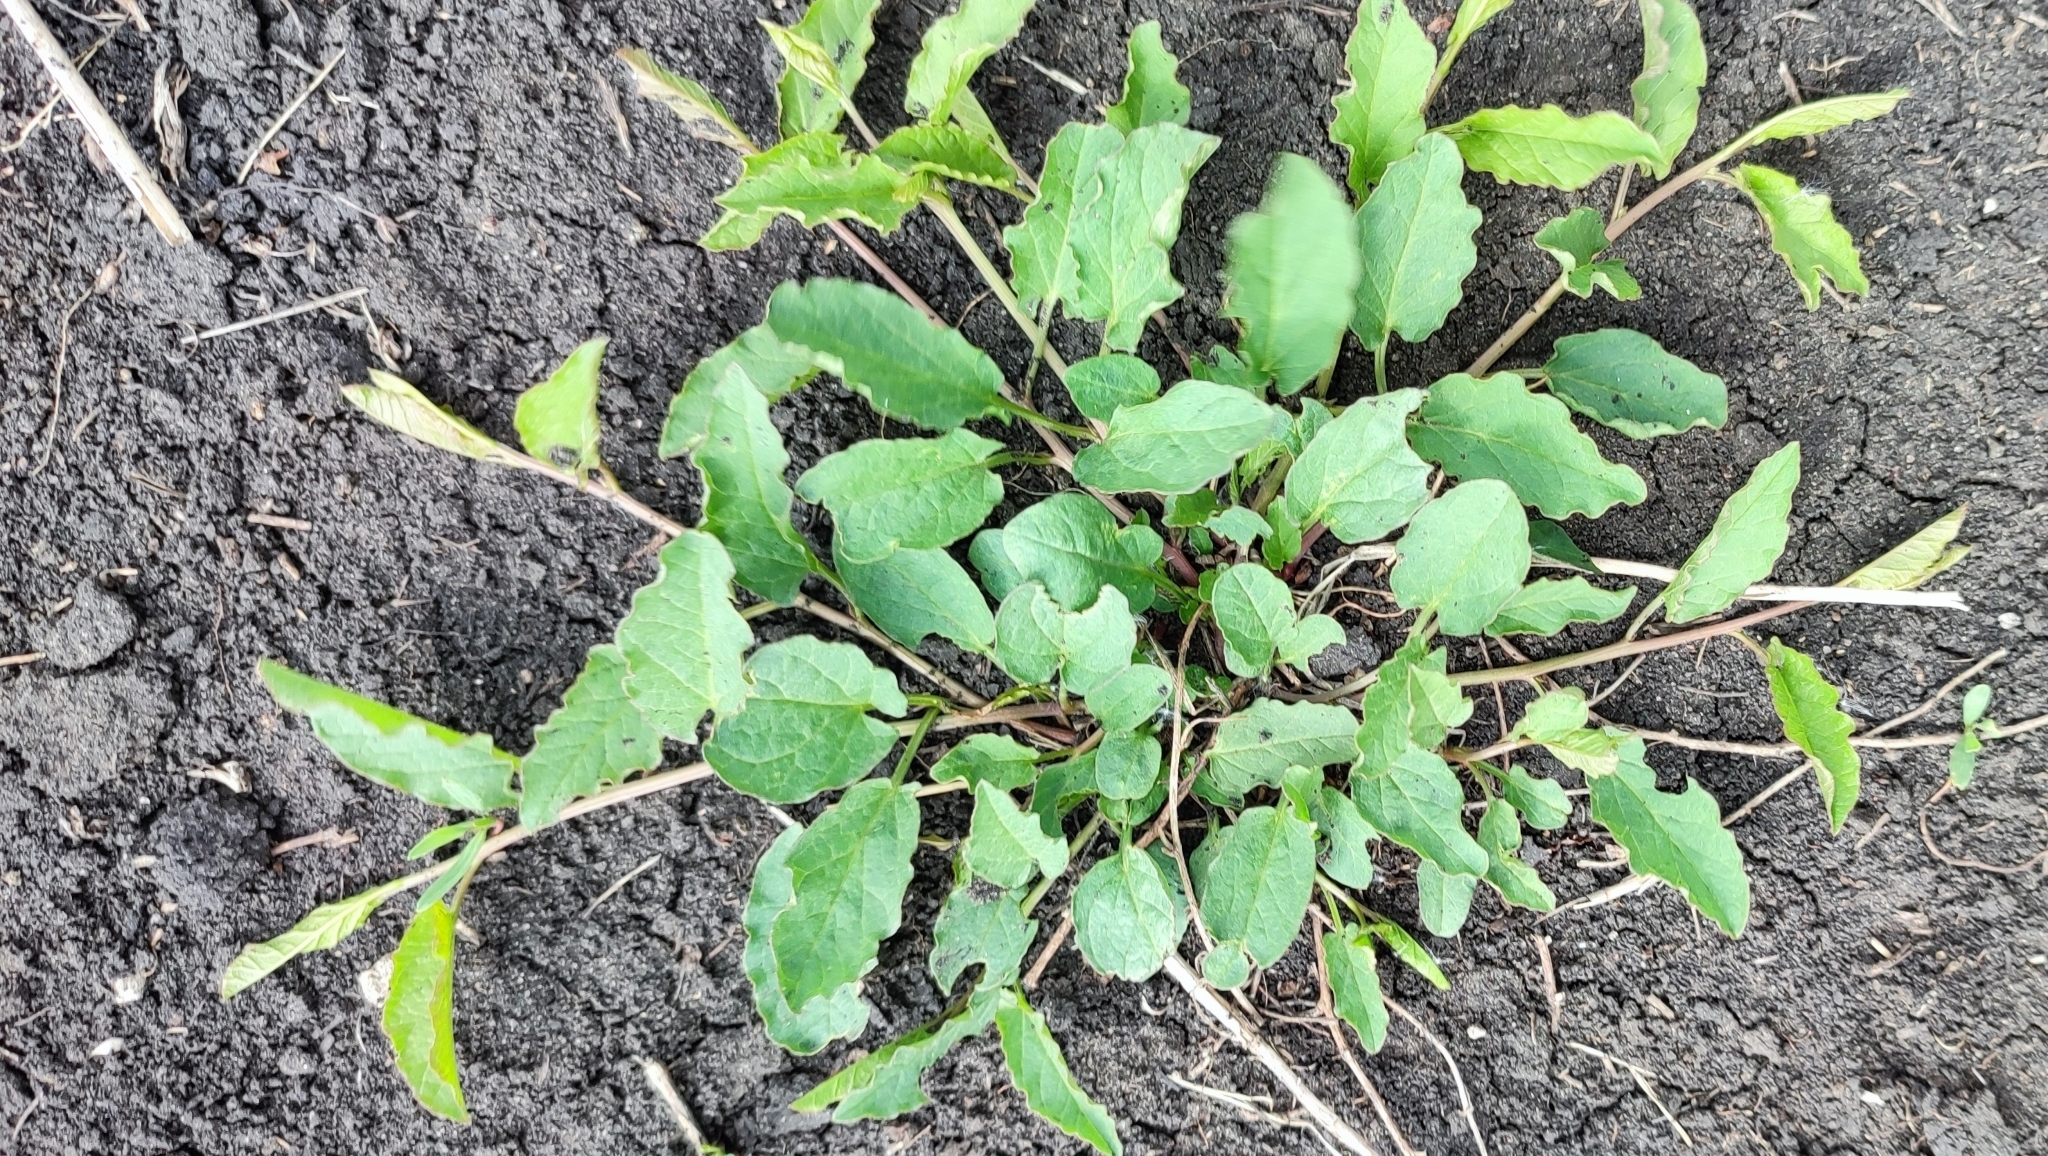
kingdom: Plantae
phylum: Tracheophyta
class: Magnoliopsida
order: Solanales
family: Convolvulaceae
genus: Convolvulus
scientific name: Convolvulus arvensis
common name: Field bindweed
